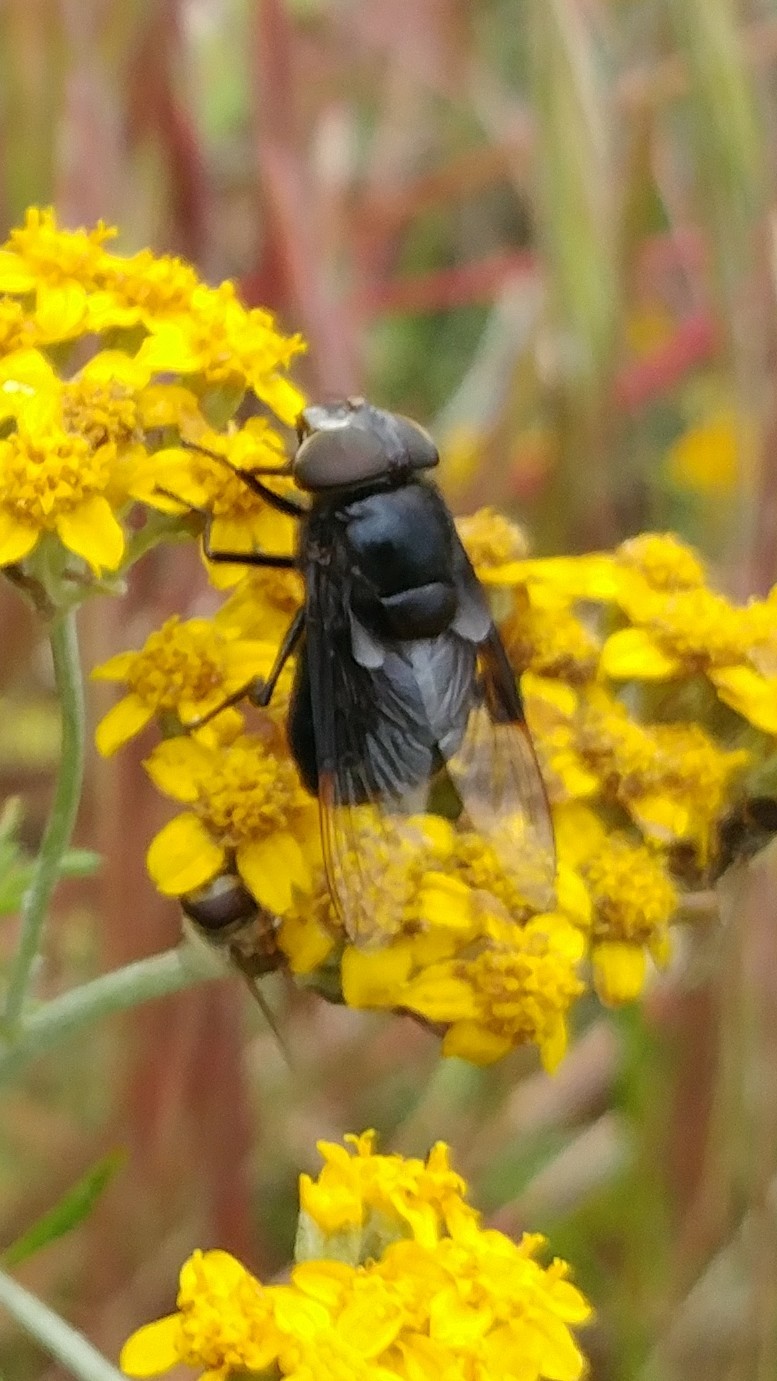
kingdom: Animalia
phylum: Arthropoda
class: Insecta
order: Diptera
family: Syrphidae
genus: Copestylum
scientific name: Copestylum mexicanum
